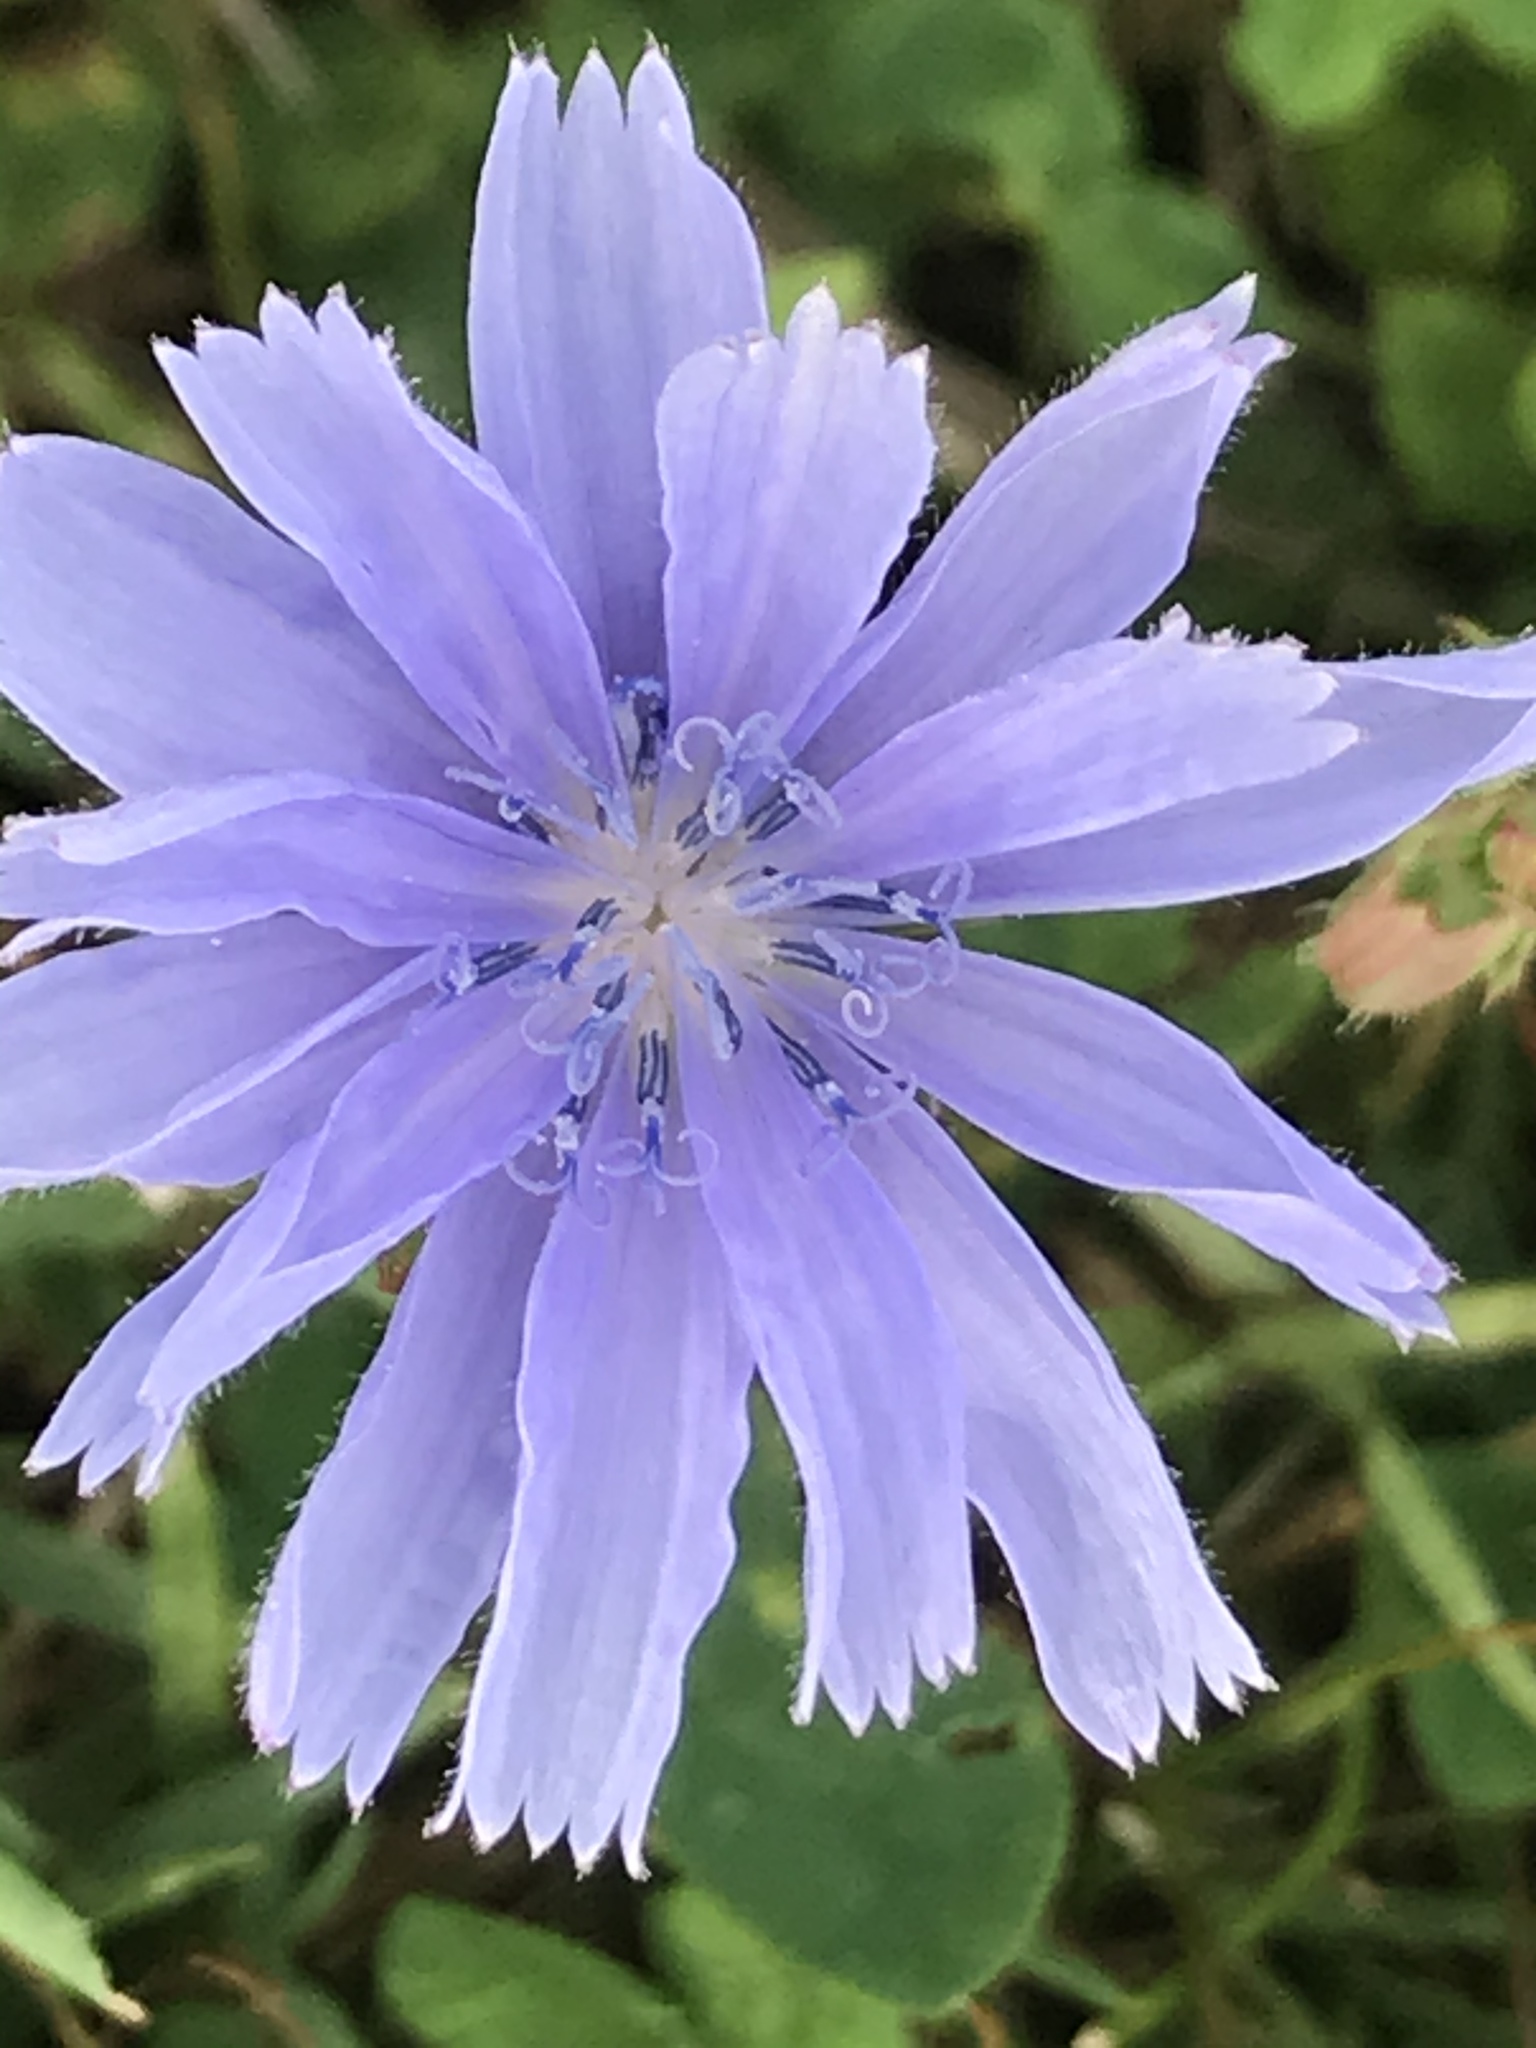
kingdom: Plantae
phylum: Tracheophyta
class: Magnoliopsida
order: Asterales
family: Asteraceae
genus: Cichorium
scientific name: Cichorium intybus
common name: Chicory
